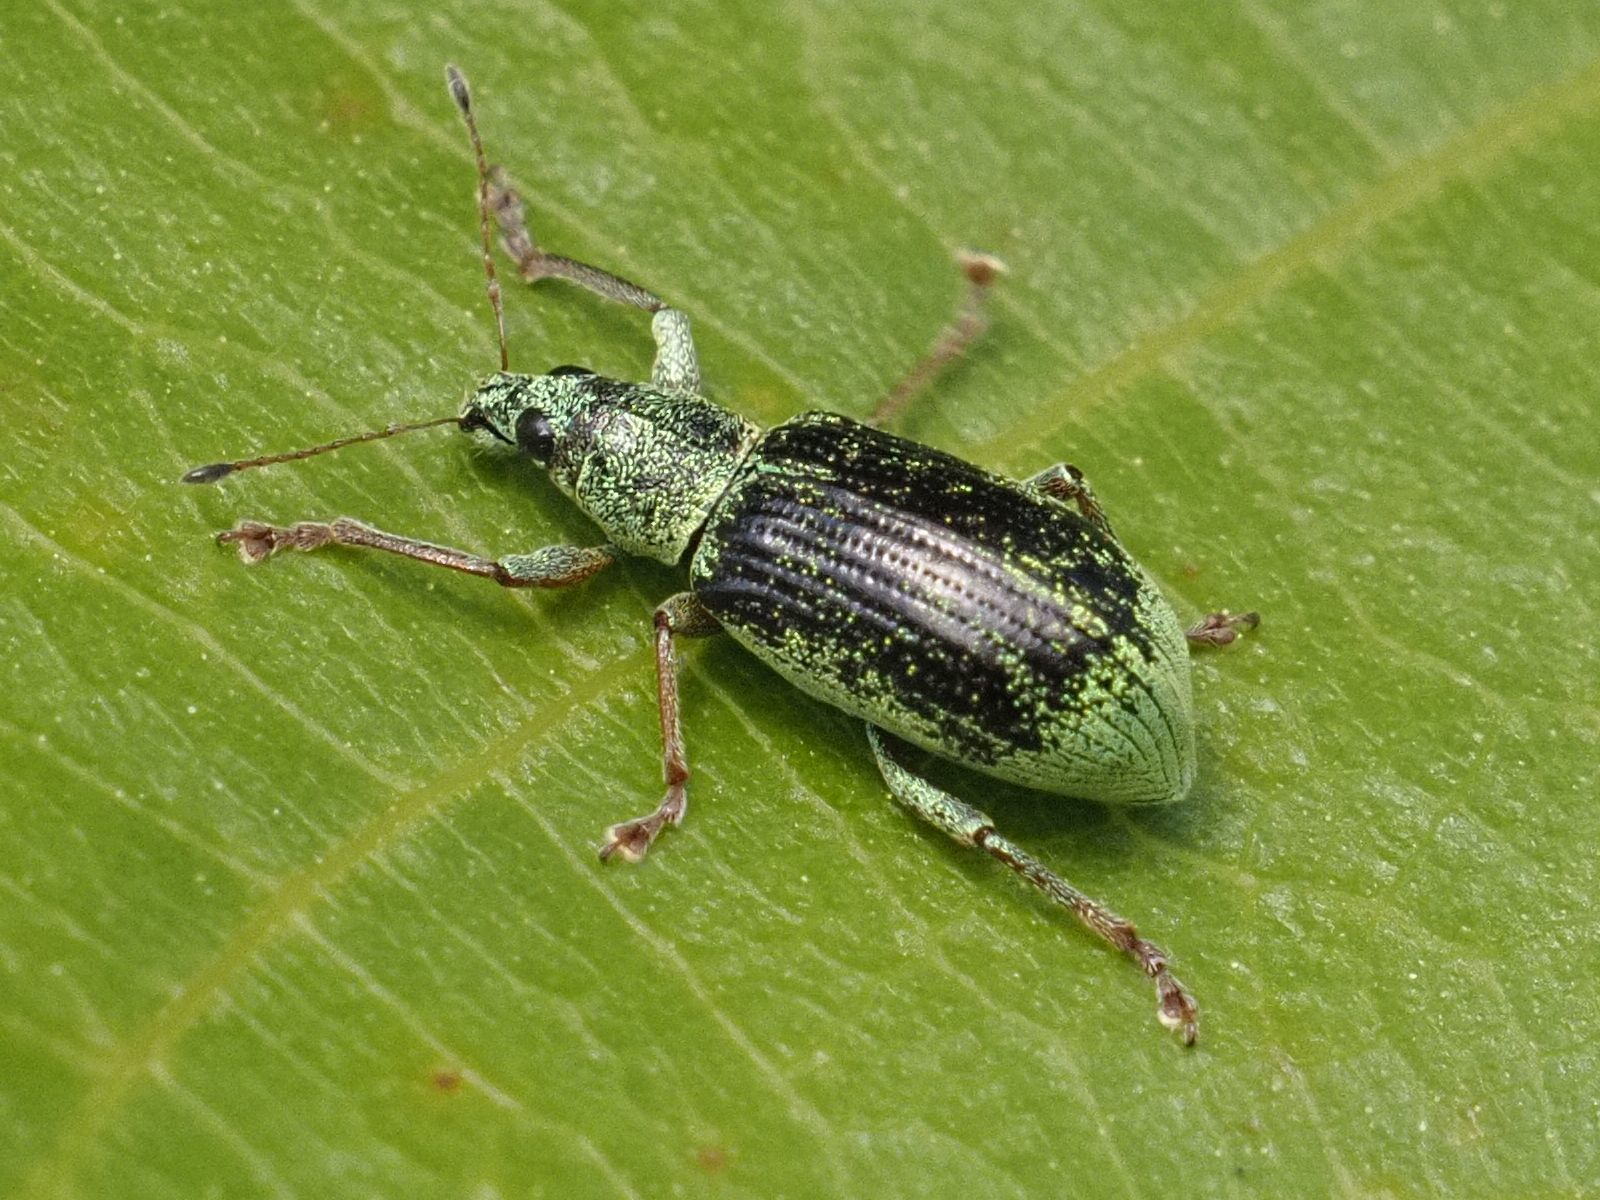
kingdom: Animalia
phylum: Arthropoda
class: Insecta
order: Coleoptera
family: Curculionidae
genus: Polydrusus
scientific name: Polydrusus formosus
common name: Weevil
